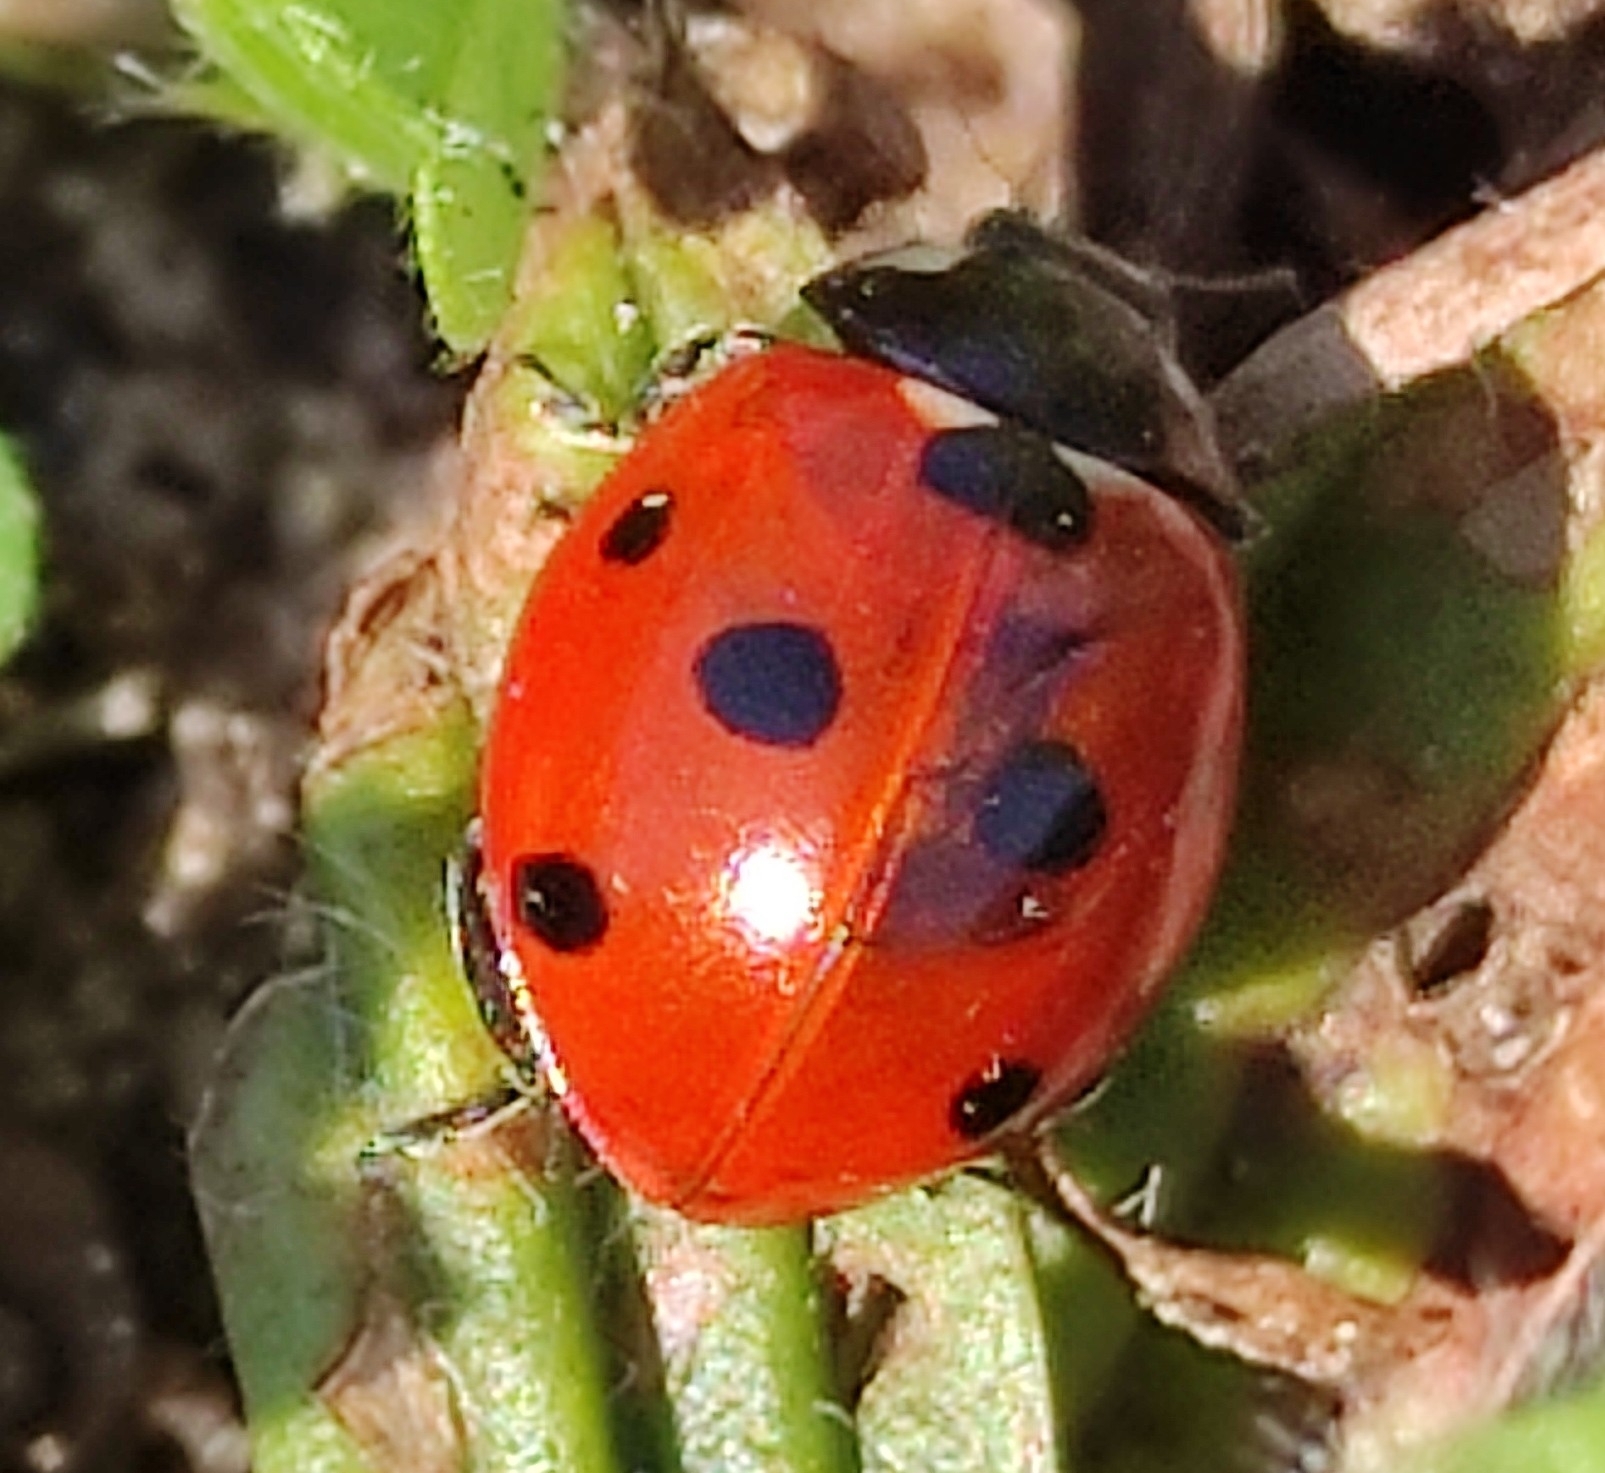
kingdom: Animalia
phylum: Arthropoda
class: Insecta
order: Coleoptera
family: Coccinellidae
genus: Coccinella
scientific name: Coccinella septempunctata
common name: Sevenspotted lady beetle
